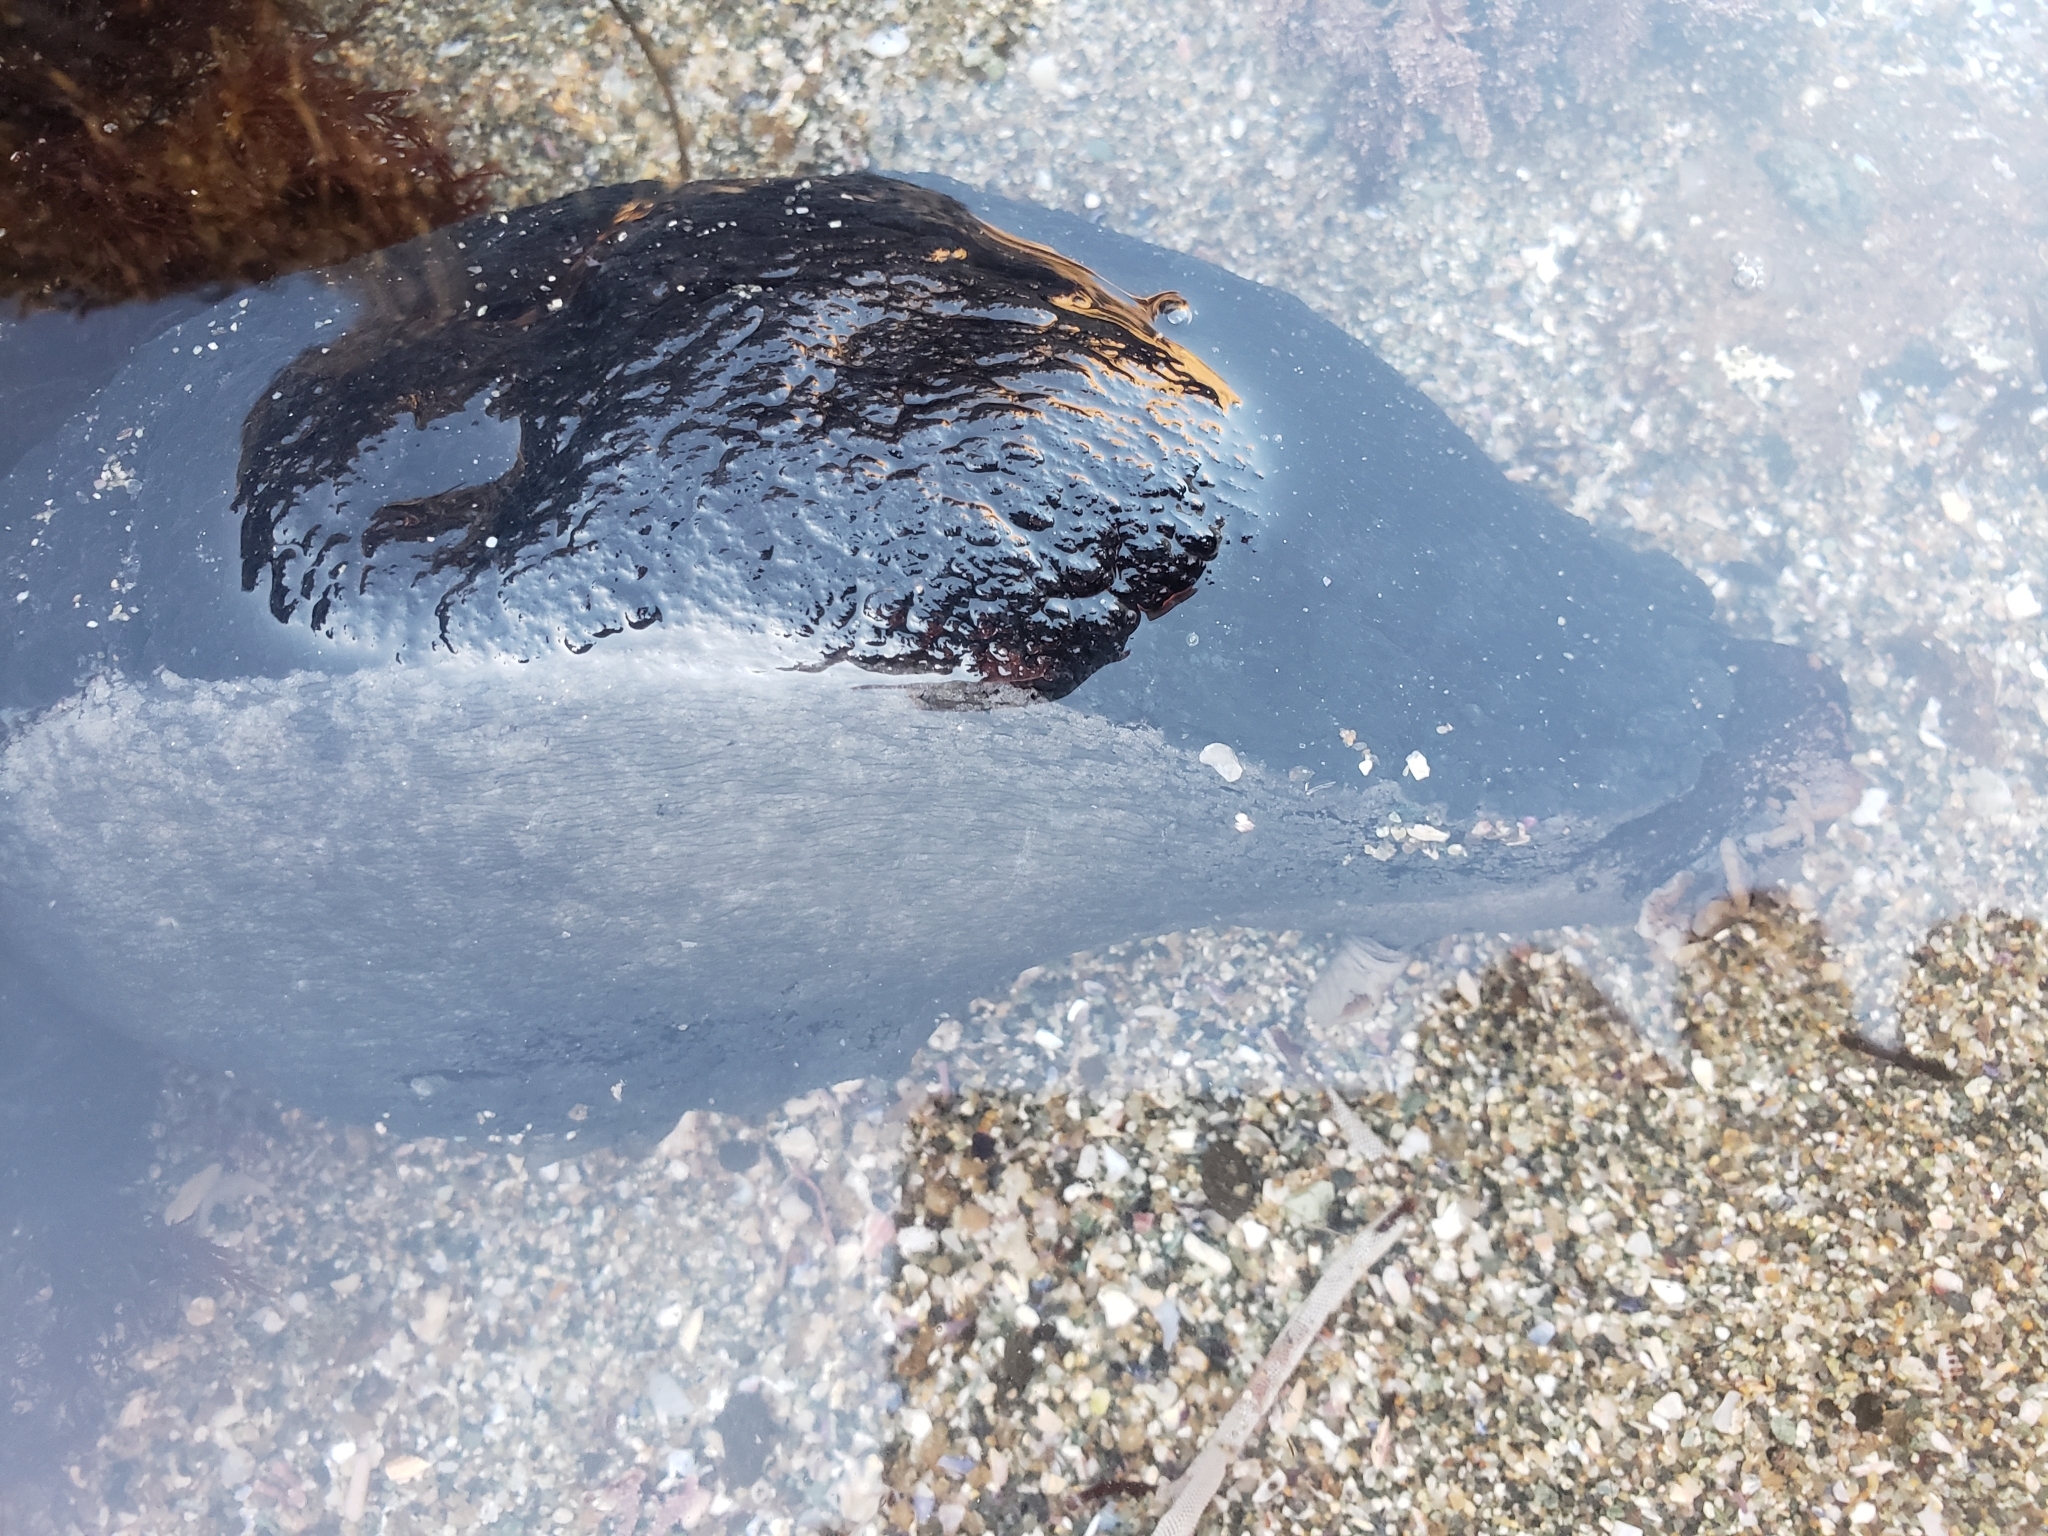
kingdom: Animalia
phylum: Mollusca
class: Gastropoda
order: Aplysiida
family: Aplysiidae
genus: Aplysia
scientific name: Aplysia vaccaria
